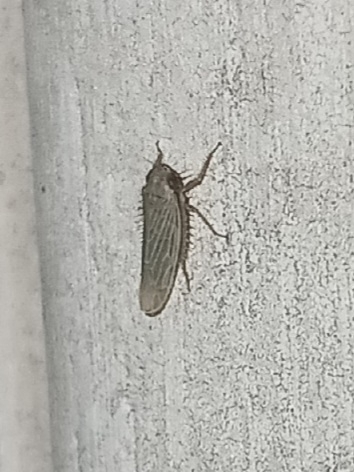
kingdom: Animalia
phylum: Arthropoda
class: Insecta
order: Hemiptera
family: Cicadellidae
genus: Graminella
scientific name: Graminella nigrifrons
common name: Blackfaced leafhopper
